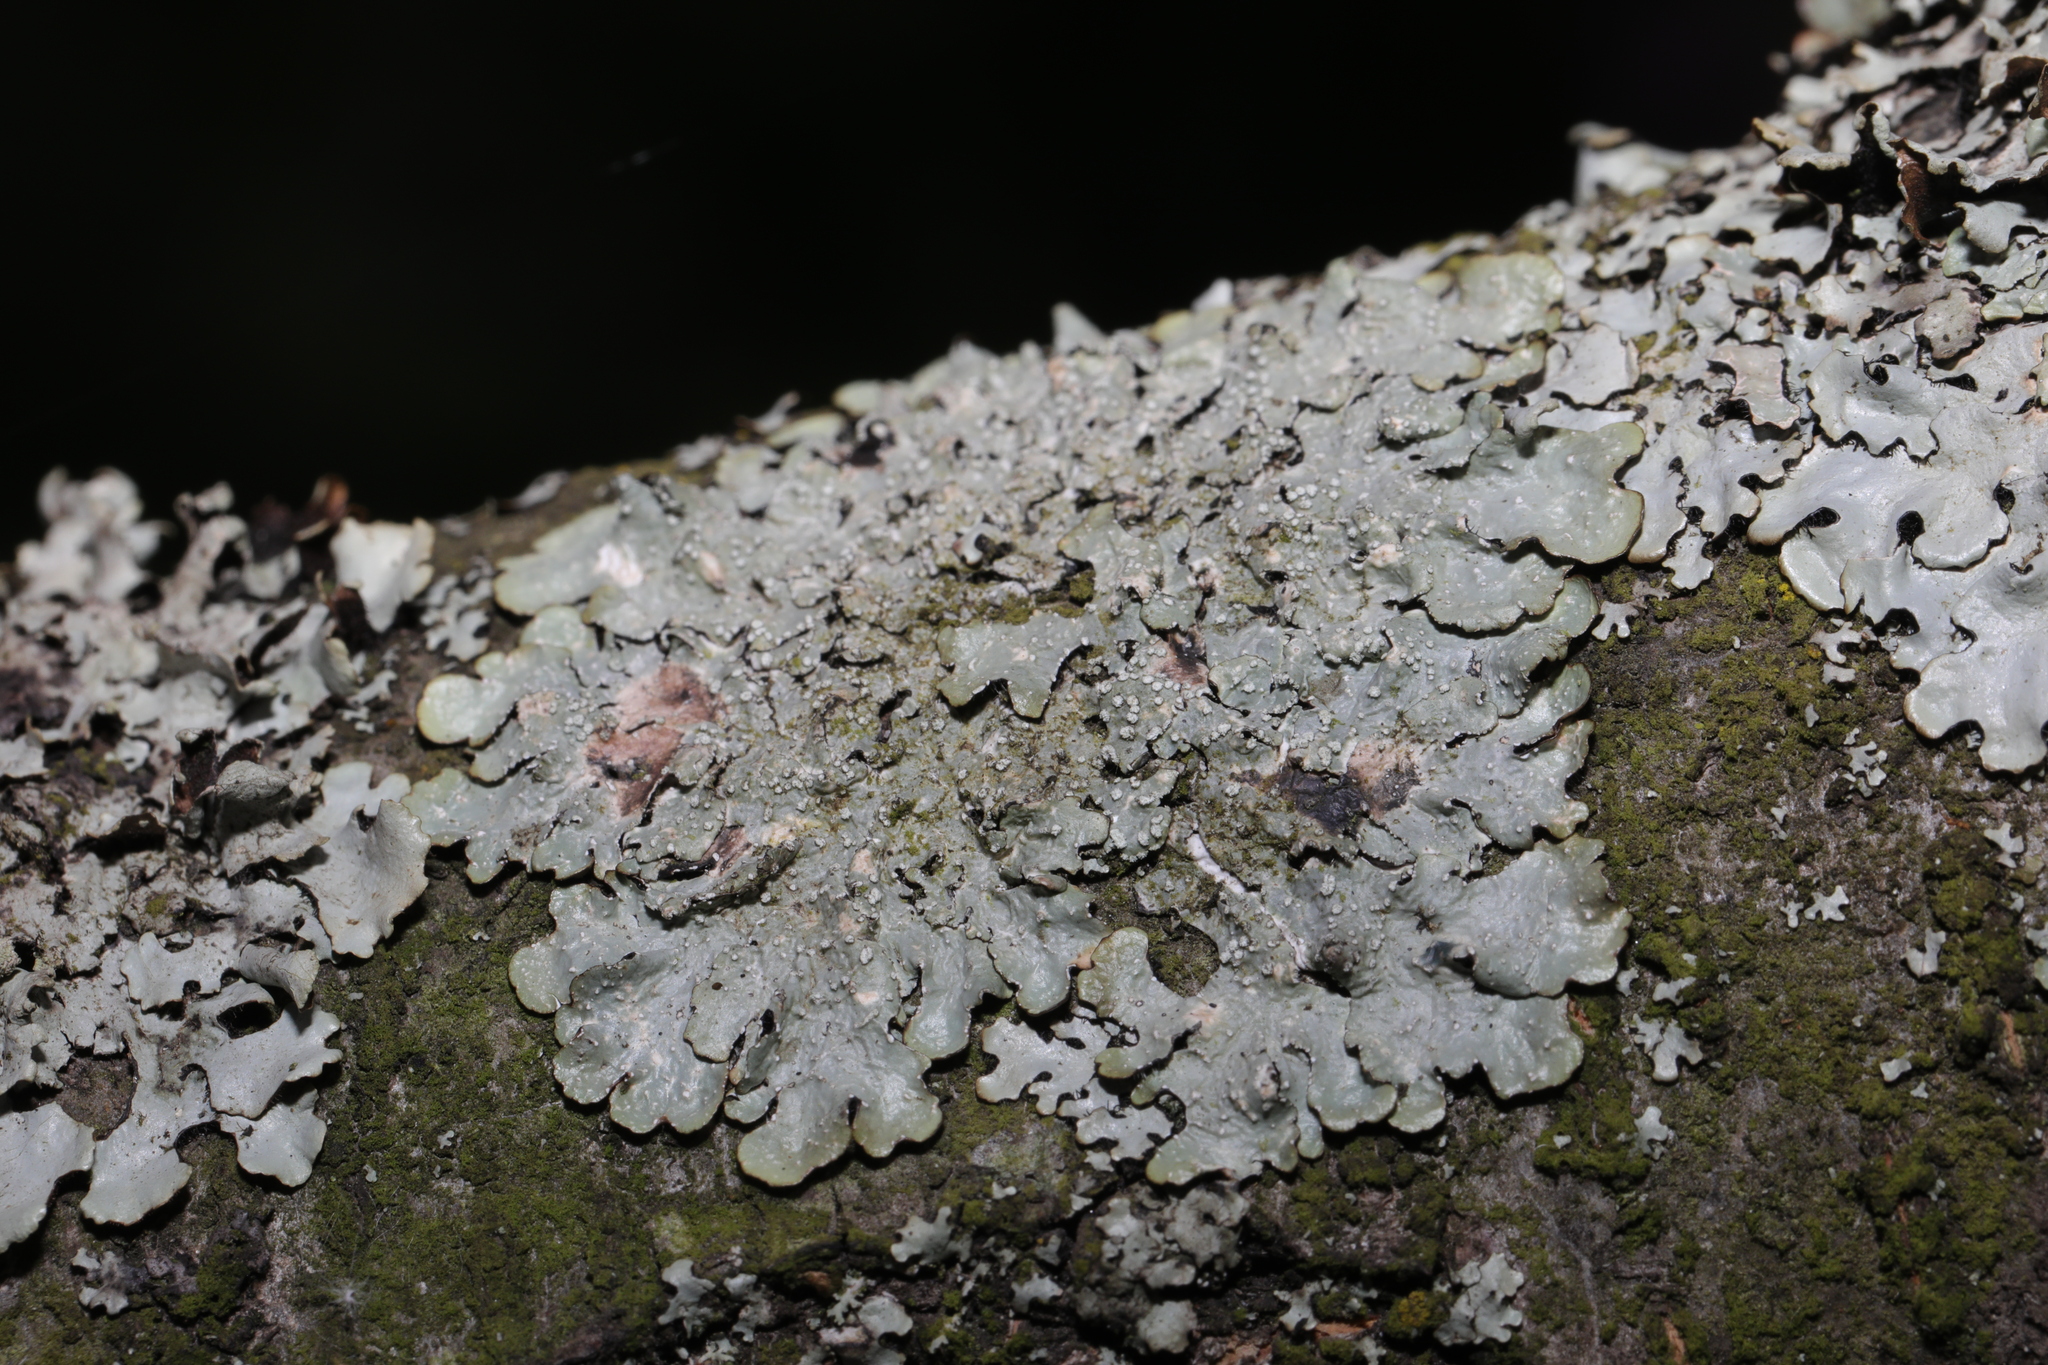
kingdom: Fungi
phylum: Ascomycota
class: Lecanoromycetes
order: Lecanorales
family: Parmeliaceae
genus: Punctelia
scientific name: Punctelia subrudecta
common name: Powdered speckled shield lichen
